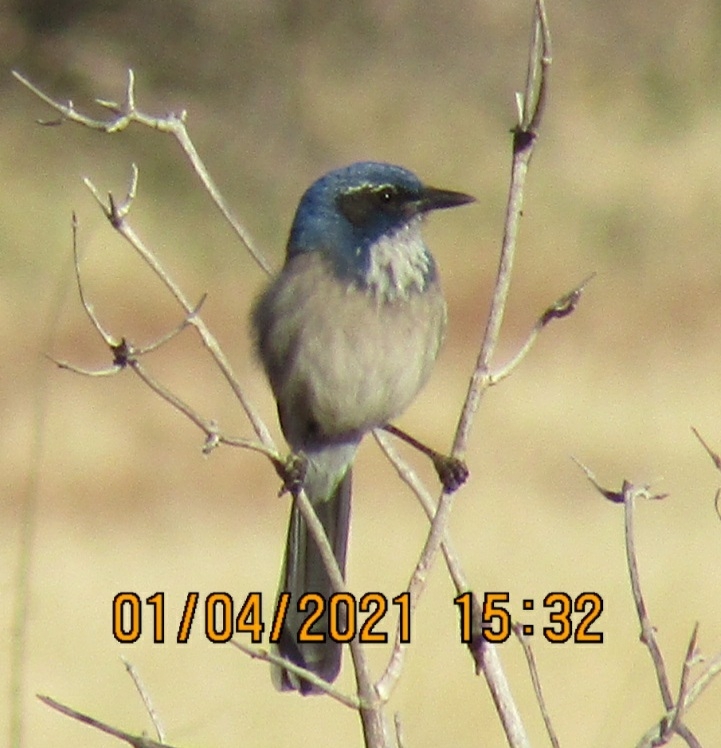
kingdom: Animalia
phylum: Chordata
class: Aves
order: Passeriformes
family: Corvidae
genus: Aphelocoma
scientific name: Aphelocoma californica
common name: California scrub-jay
